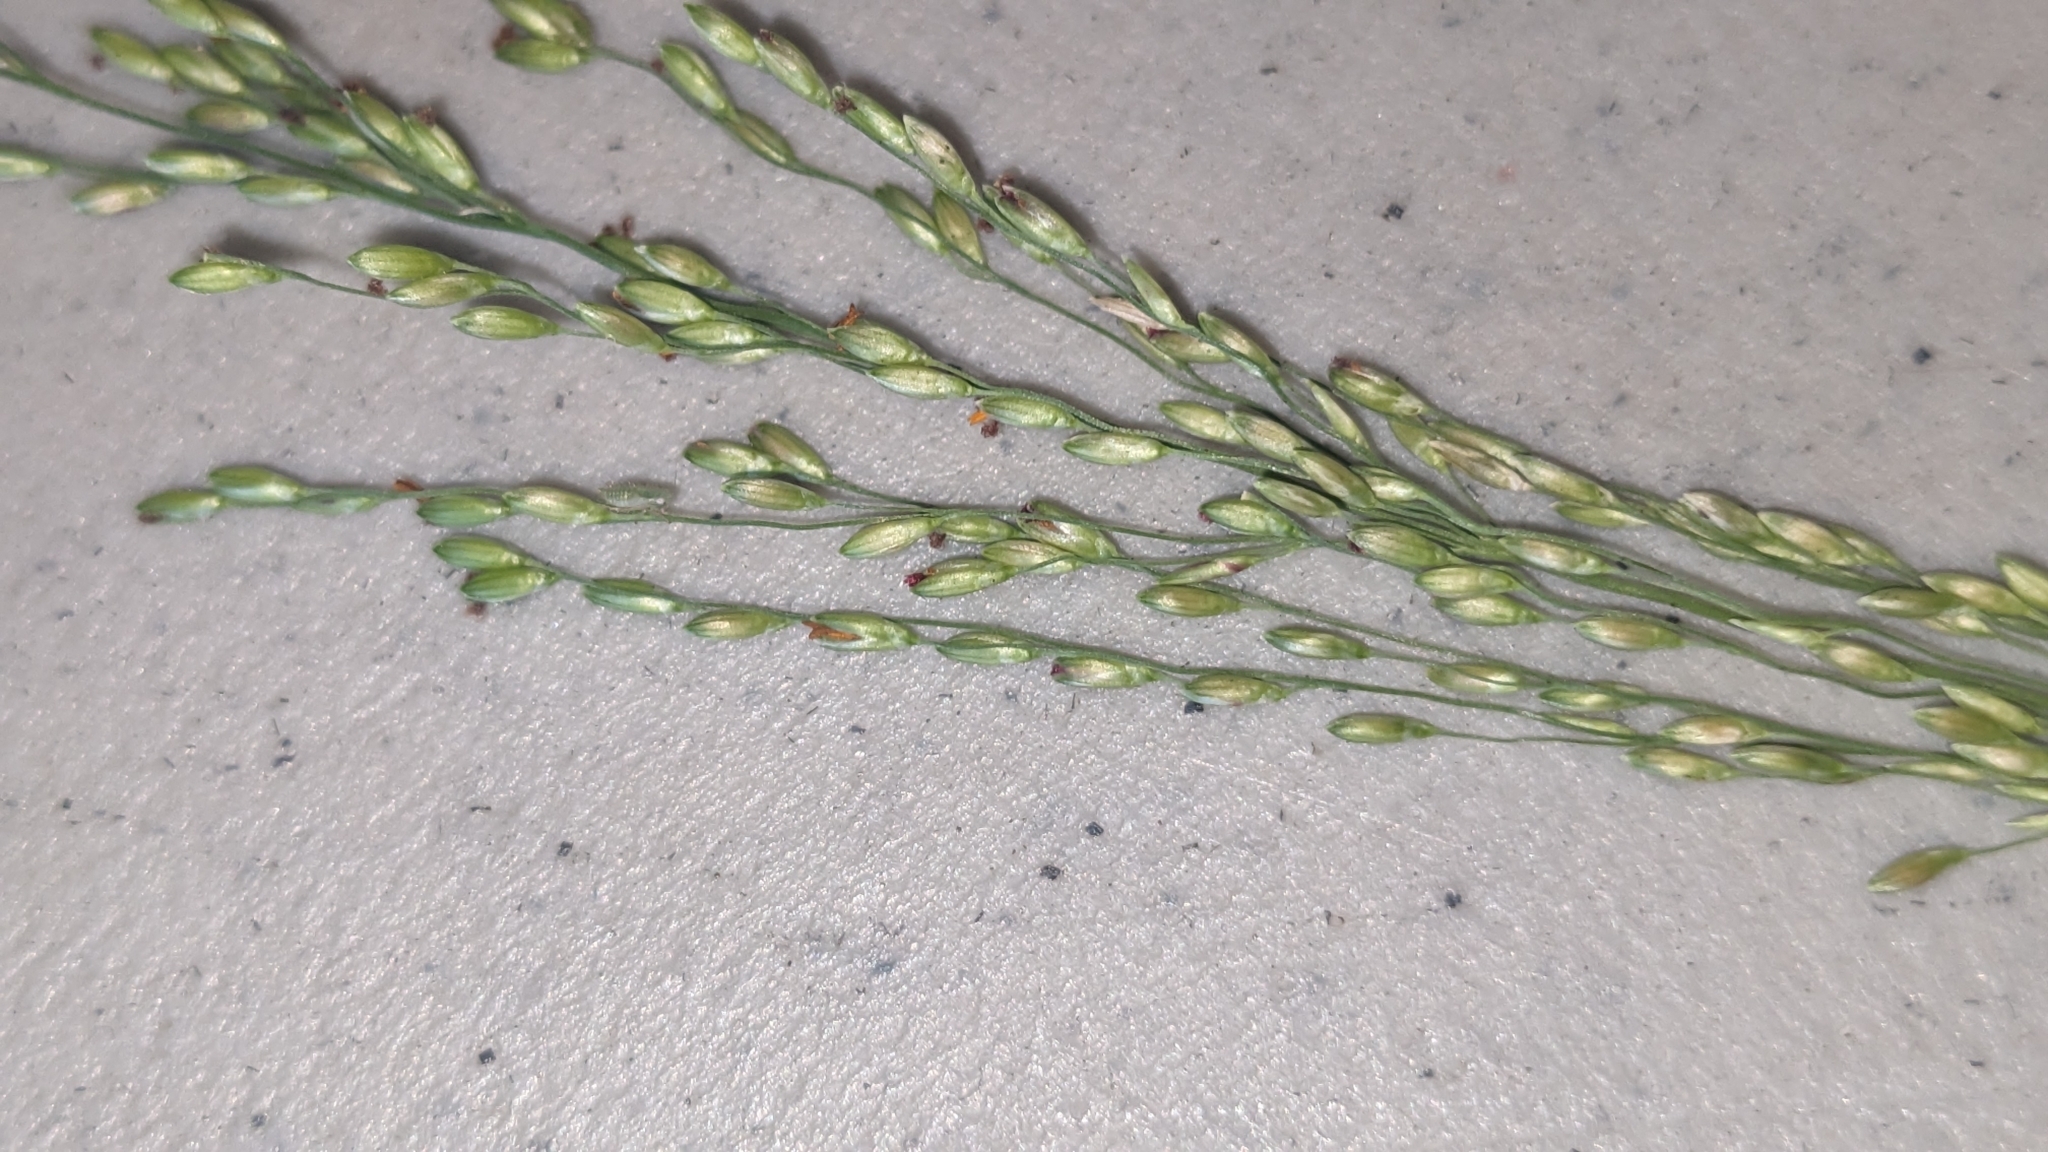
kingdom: Plantae
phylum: Tracheophyta
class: Liliopsida
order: Poales
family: Poaceae
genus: Megathyrsus
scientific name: Megathyrsus maximus
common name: Guineagrass
